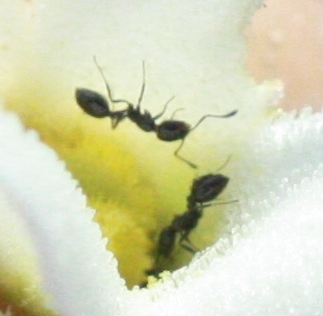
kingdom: Animalia
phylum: Arthropoda
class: Insecta
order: Hymenoptera
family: Formicidae
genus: Monomorium
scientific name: Monomorium ergatogyna
